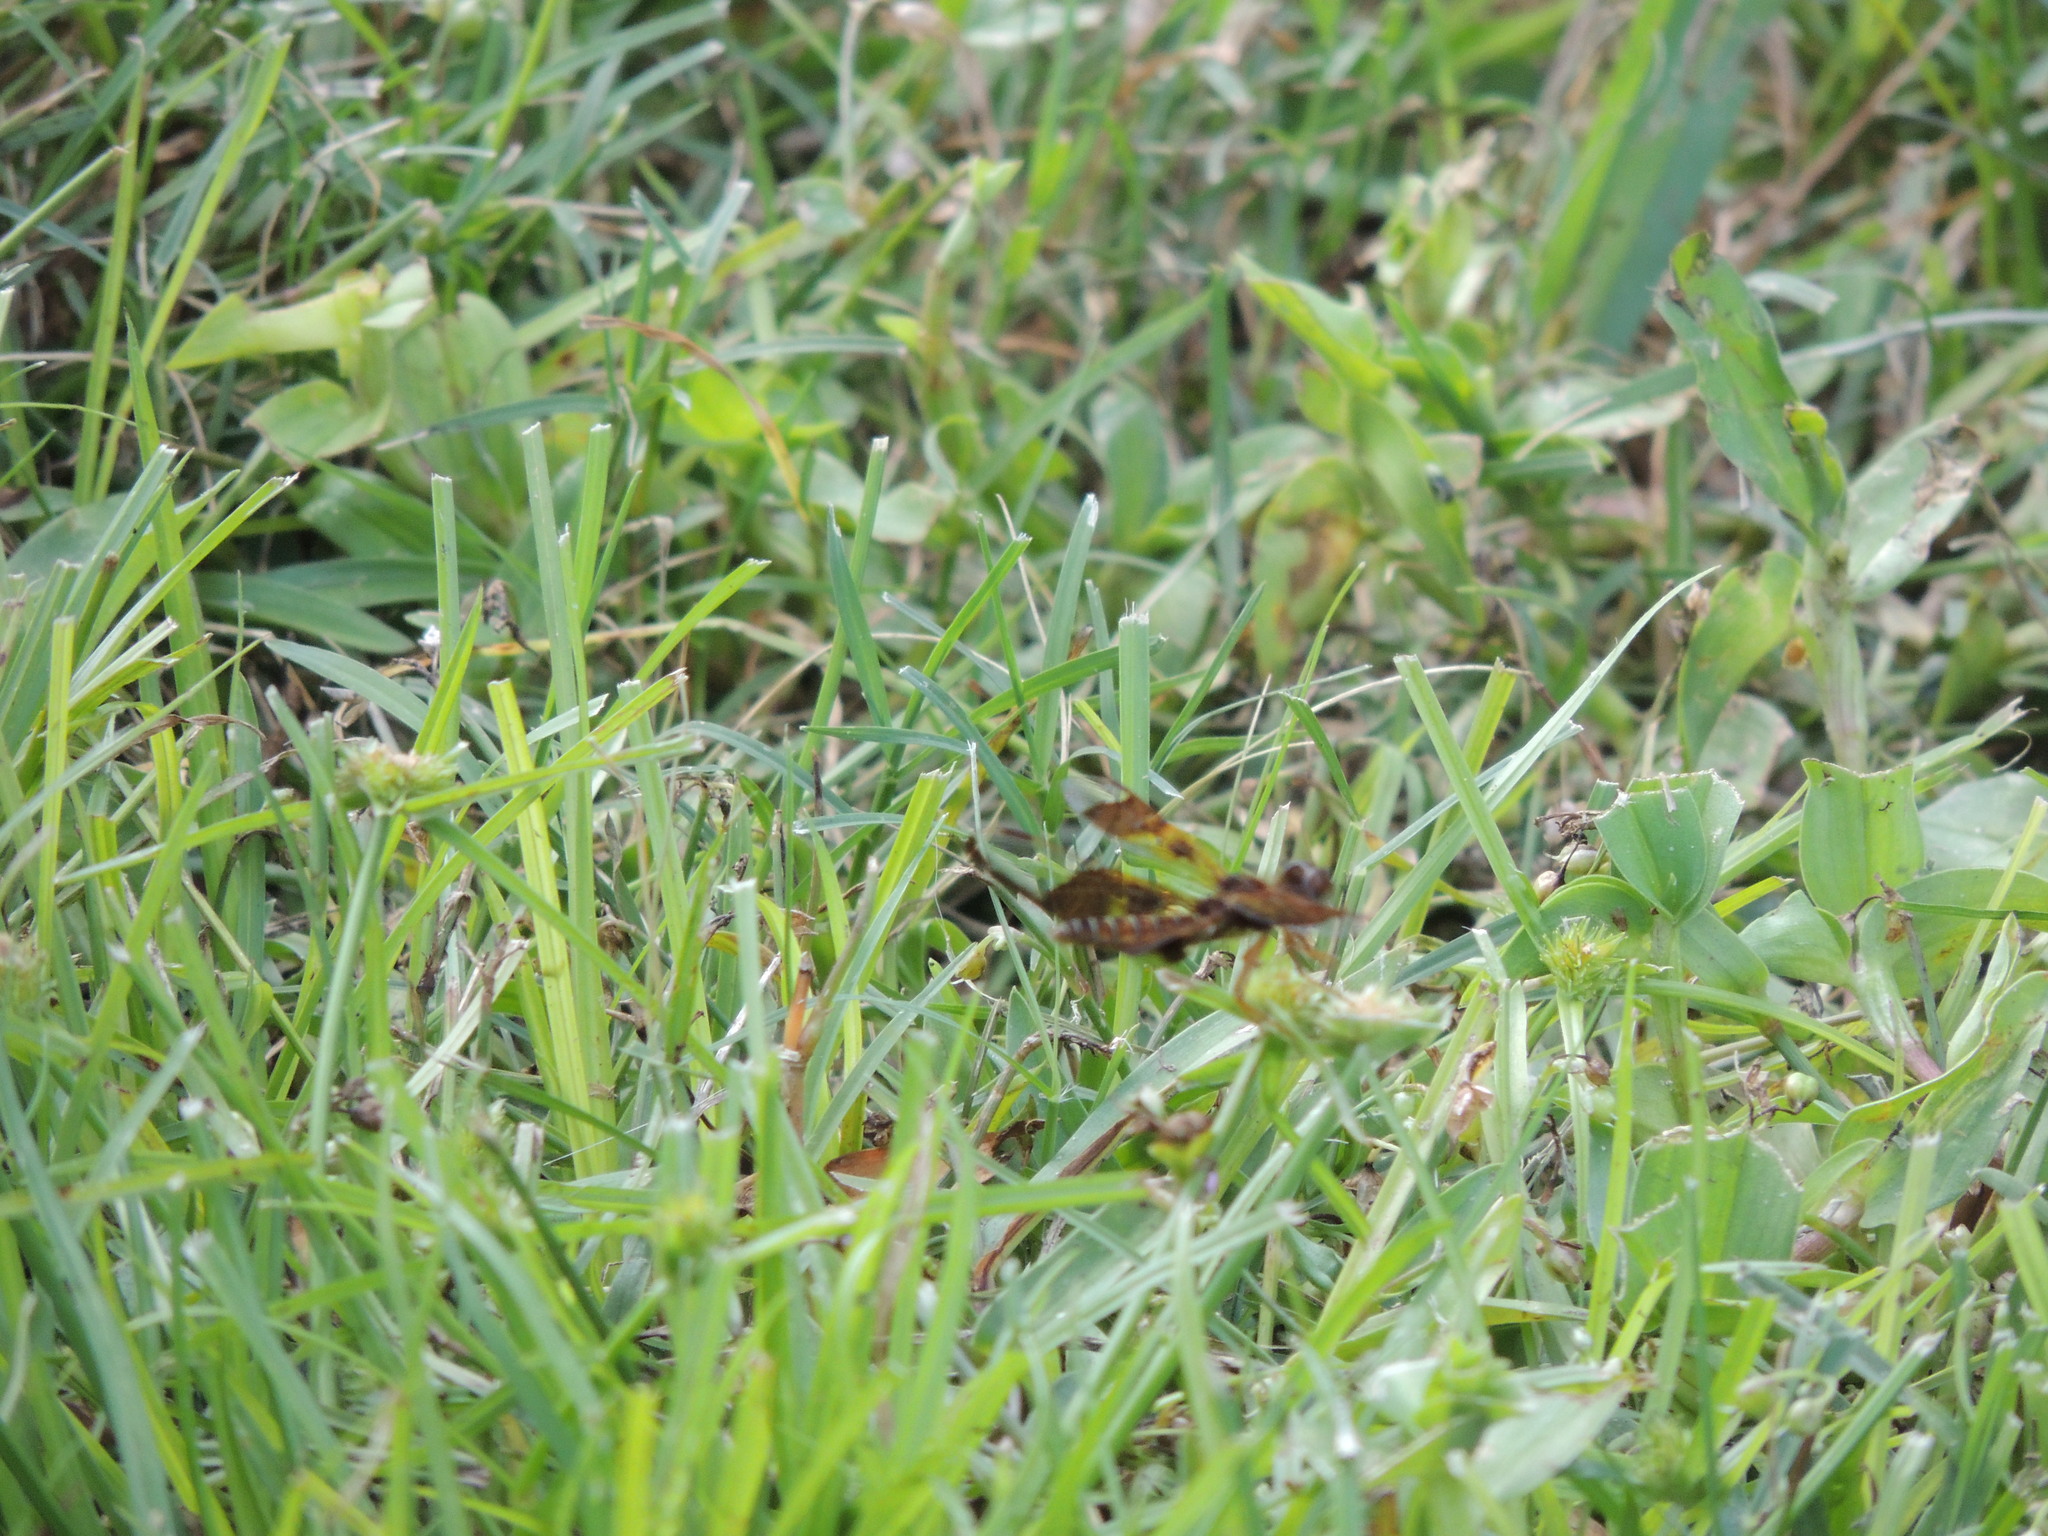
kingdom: Animalia
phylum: Arthropoda
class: Insecta
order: Odonata
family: Libellulidae
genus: Perithemis
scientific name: Perithemis tenera
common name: Eastern amberwing
